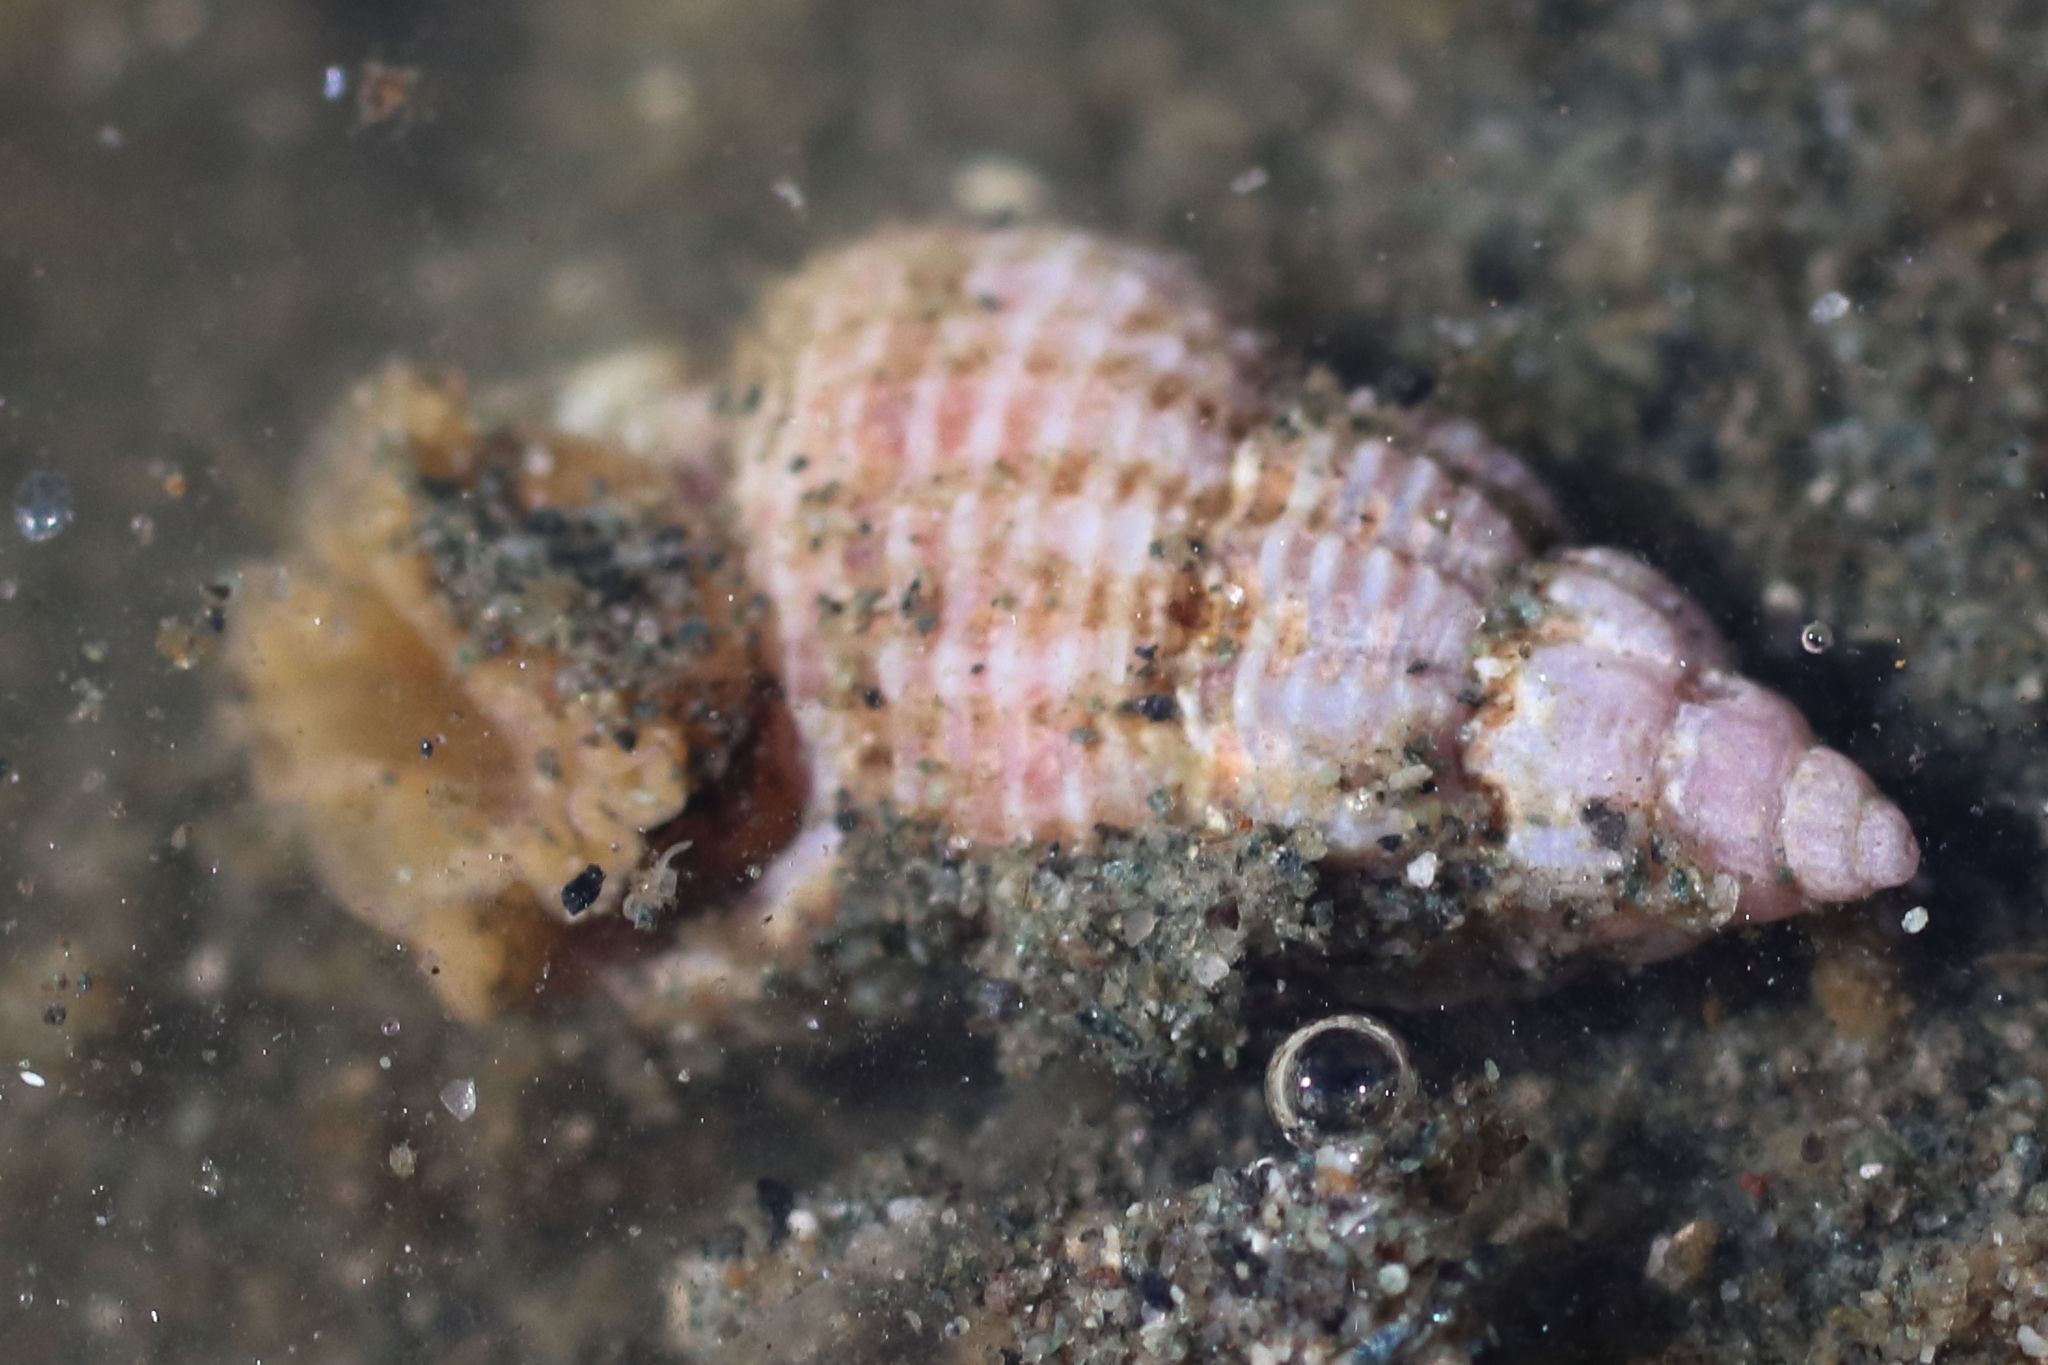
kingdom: Animalia
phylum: Mollusca
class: Gastropoda
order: Neogastropoda
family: Nassariidae
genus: Nassarius
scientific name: Nassarius mendicus
